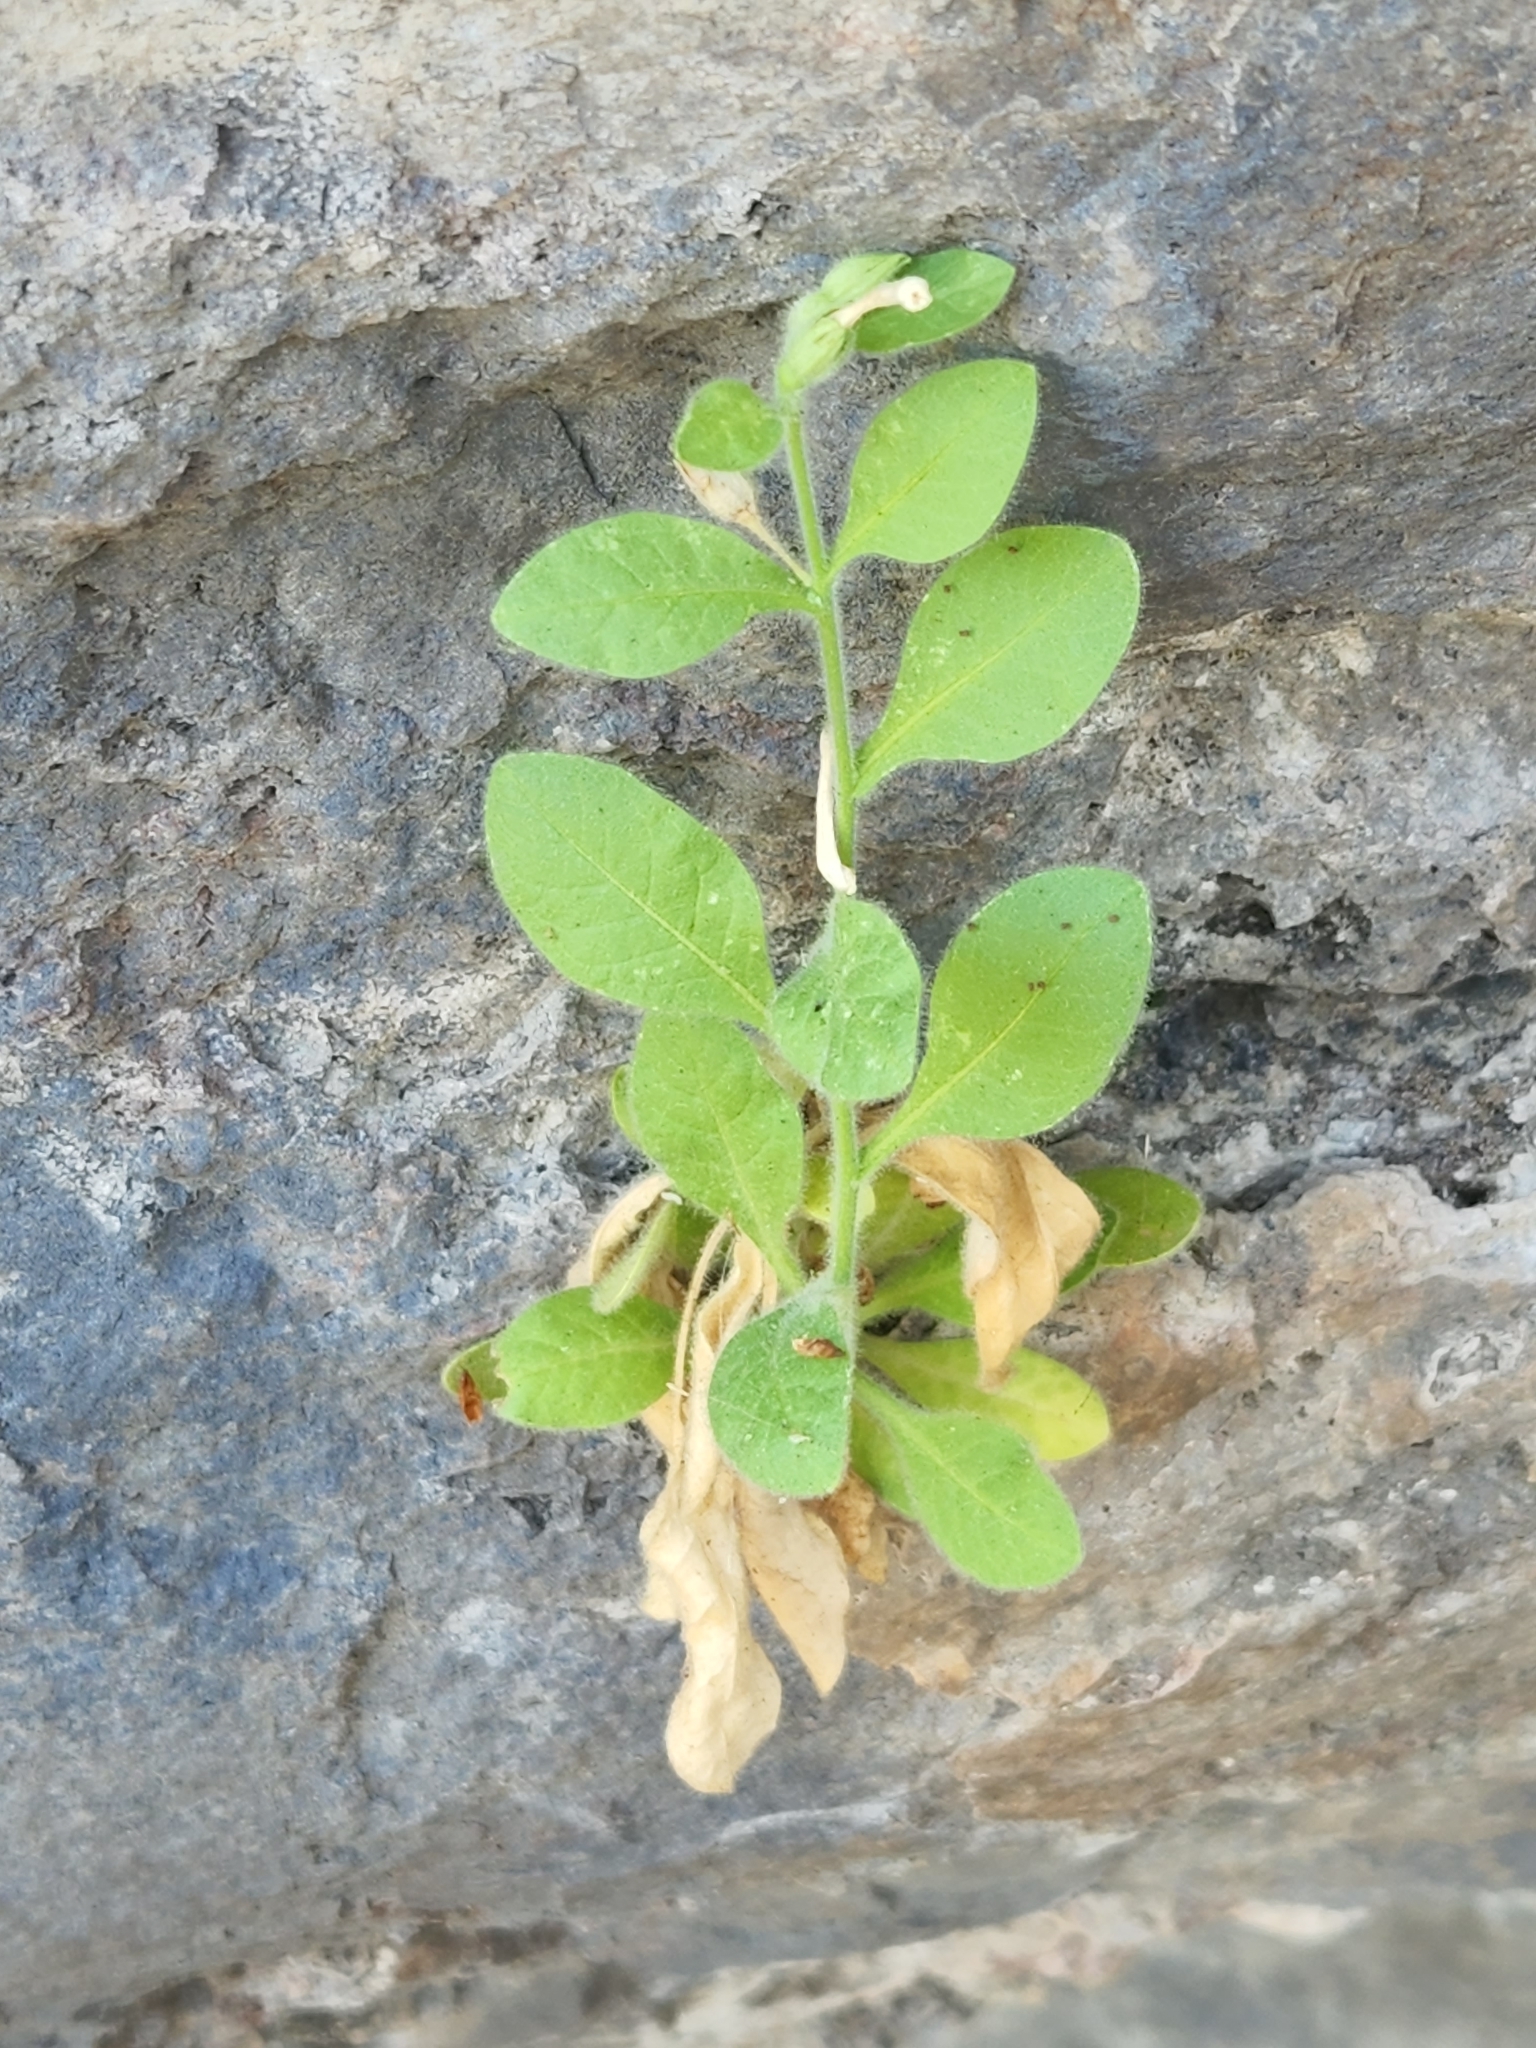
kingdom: Plantae
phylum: Tracheophyta
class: Magnoliopsida
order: Solanales
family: Solanaceae
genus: Nicotiana
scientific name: Nicotiana obtusifolia
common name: Desert tobacco
